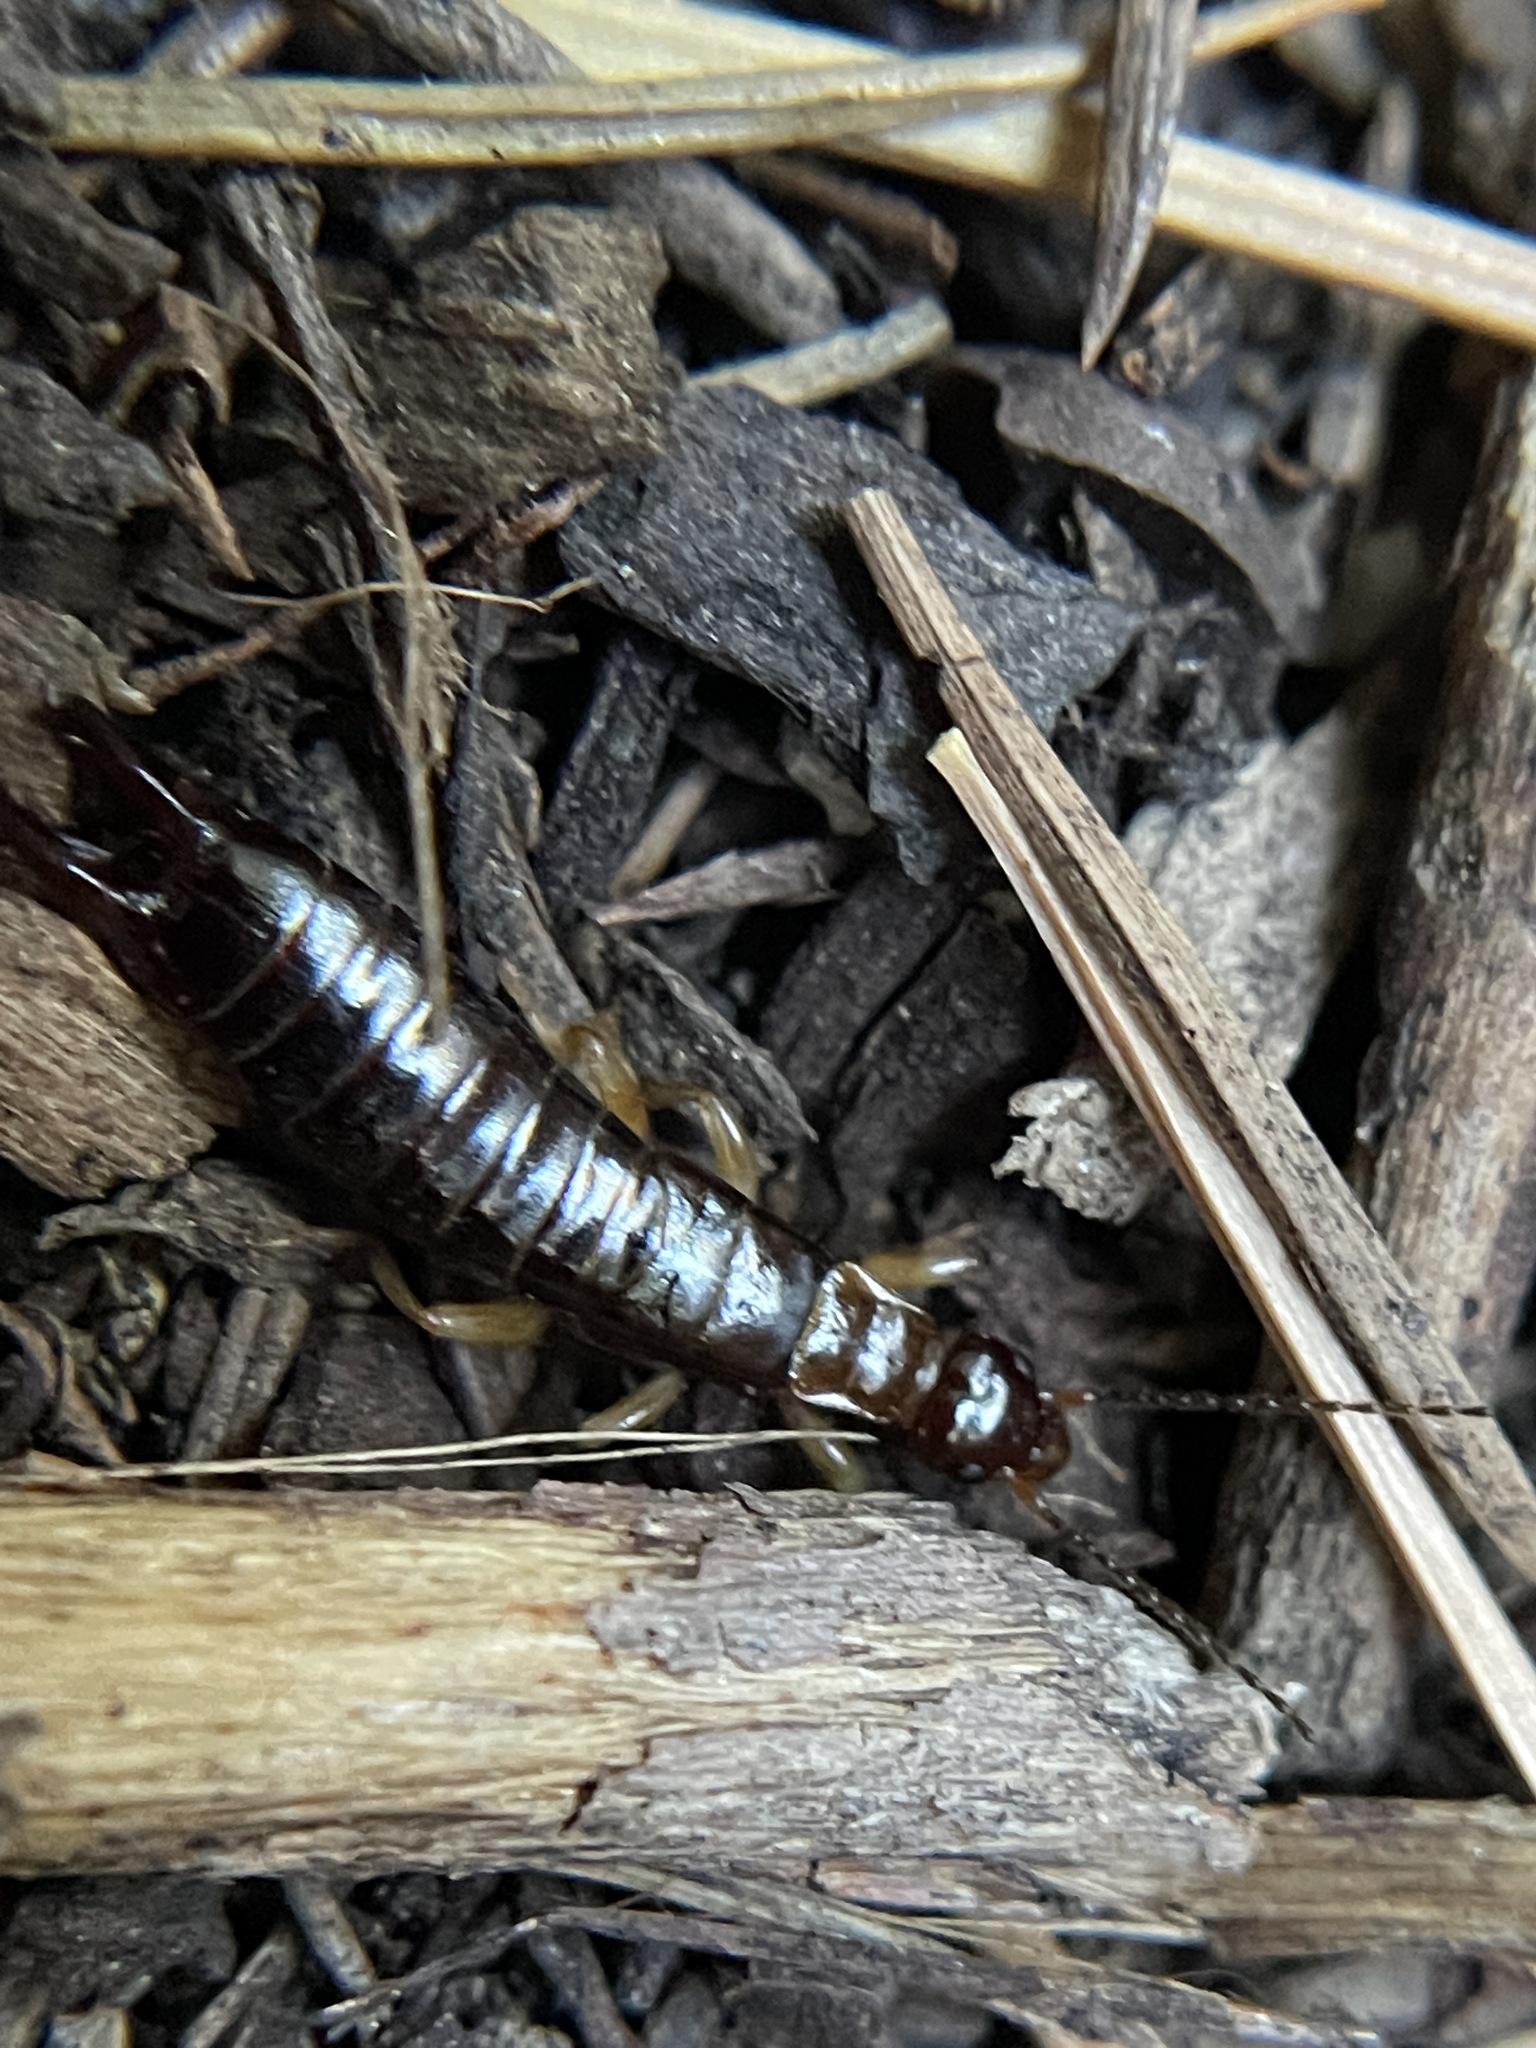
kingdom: Animalia
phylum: Arthropoda
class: Insecta
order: Dermaptera
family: Anisolabididae
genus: Euborellia
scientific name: Euborellia annulipes
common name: Ringlegged earwig
